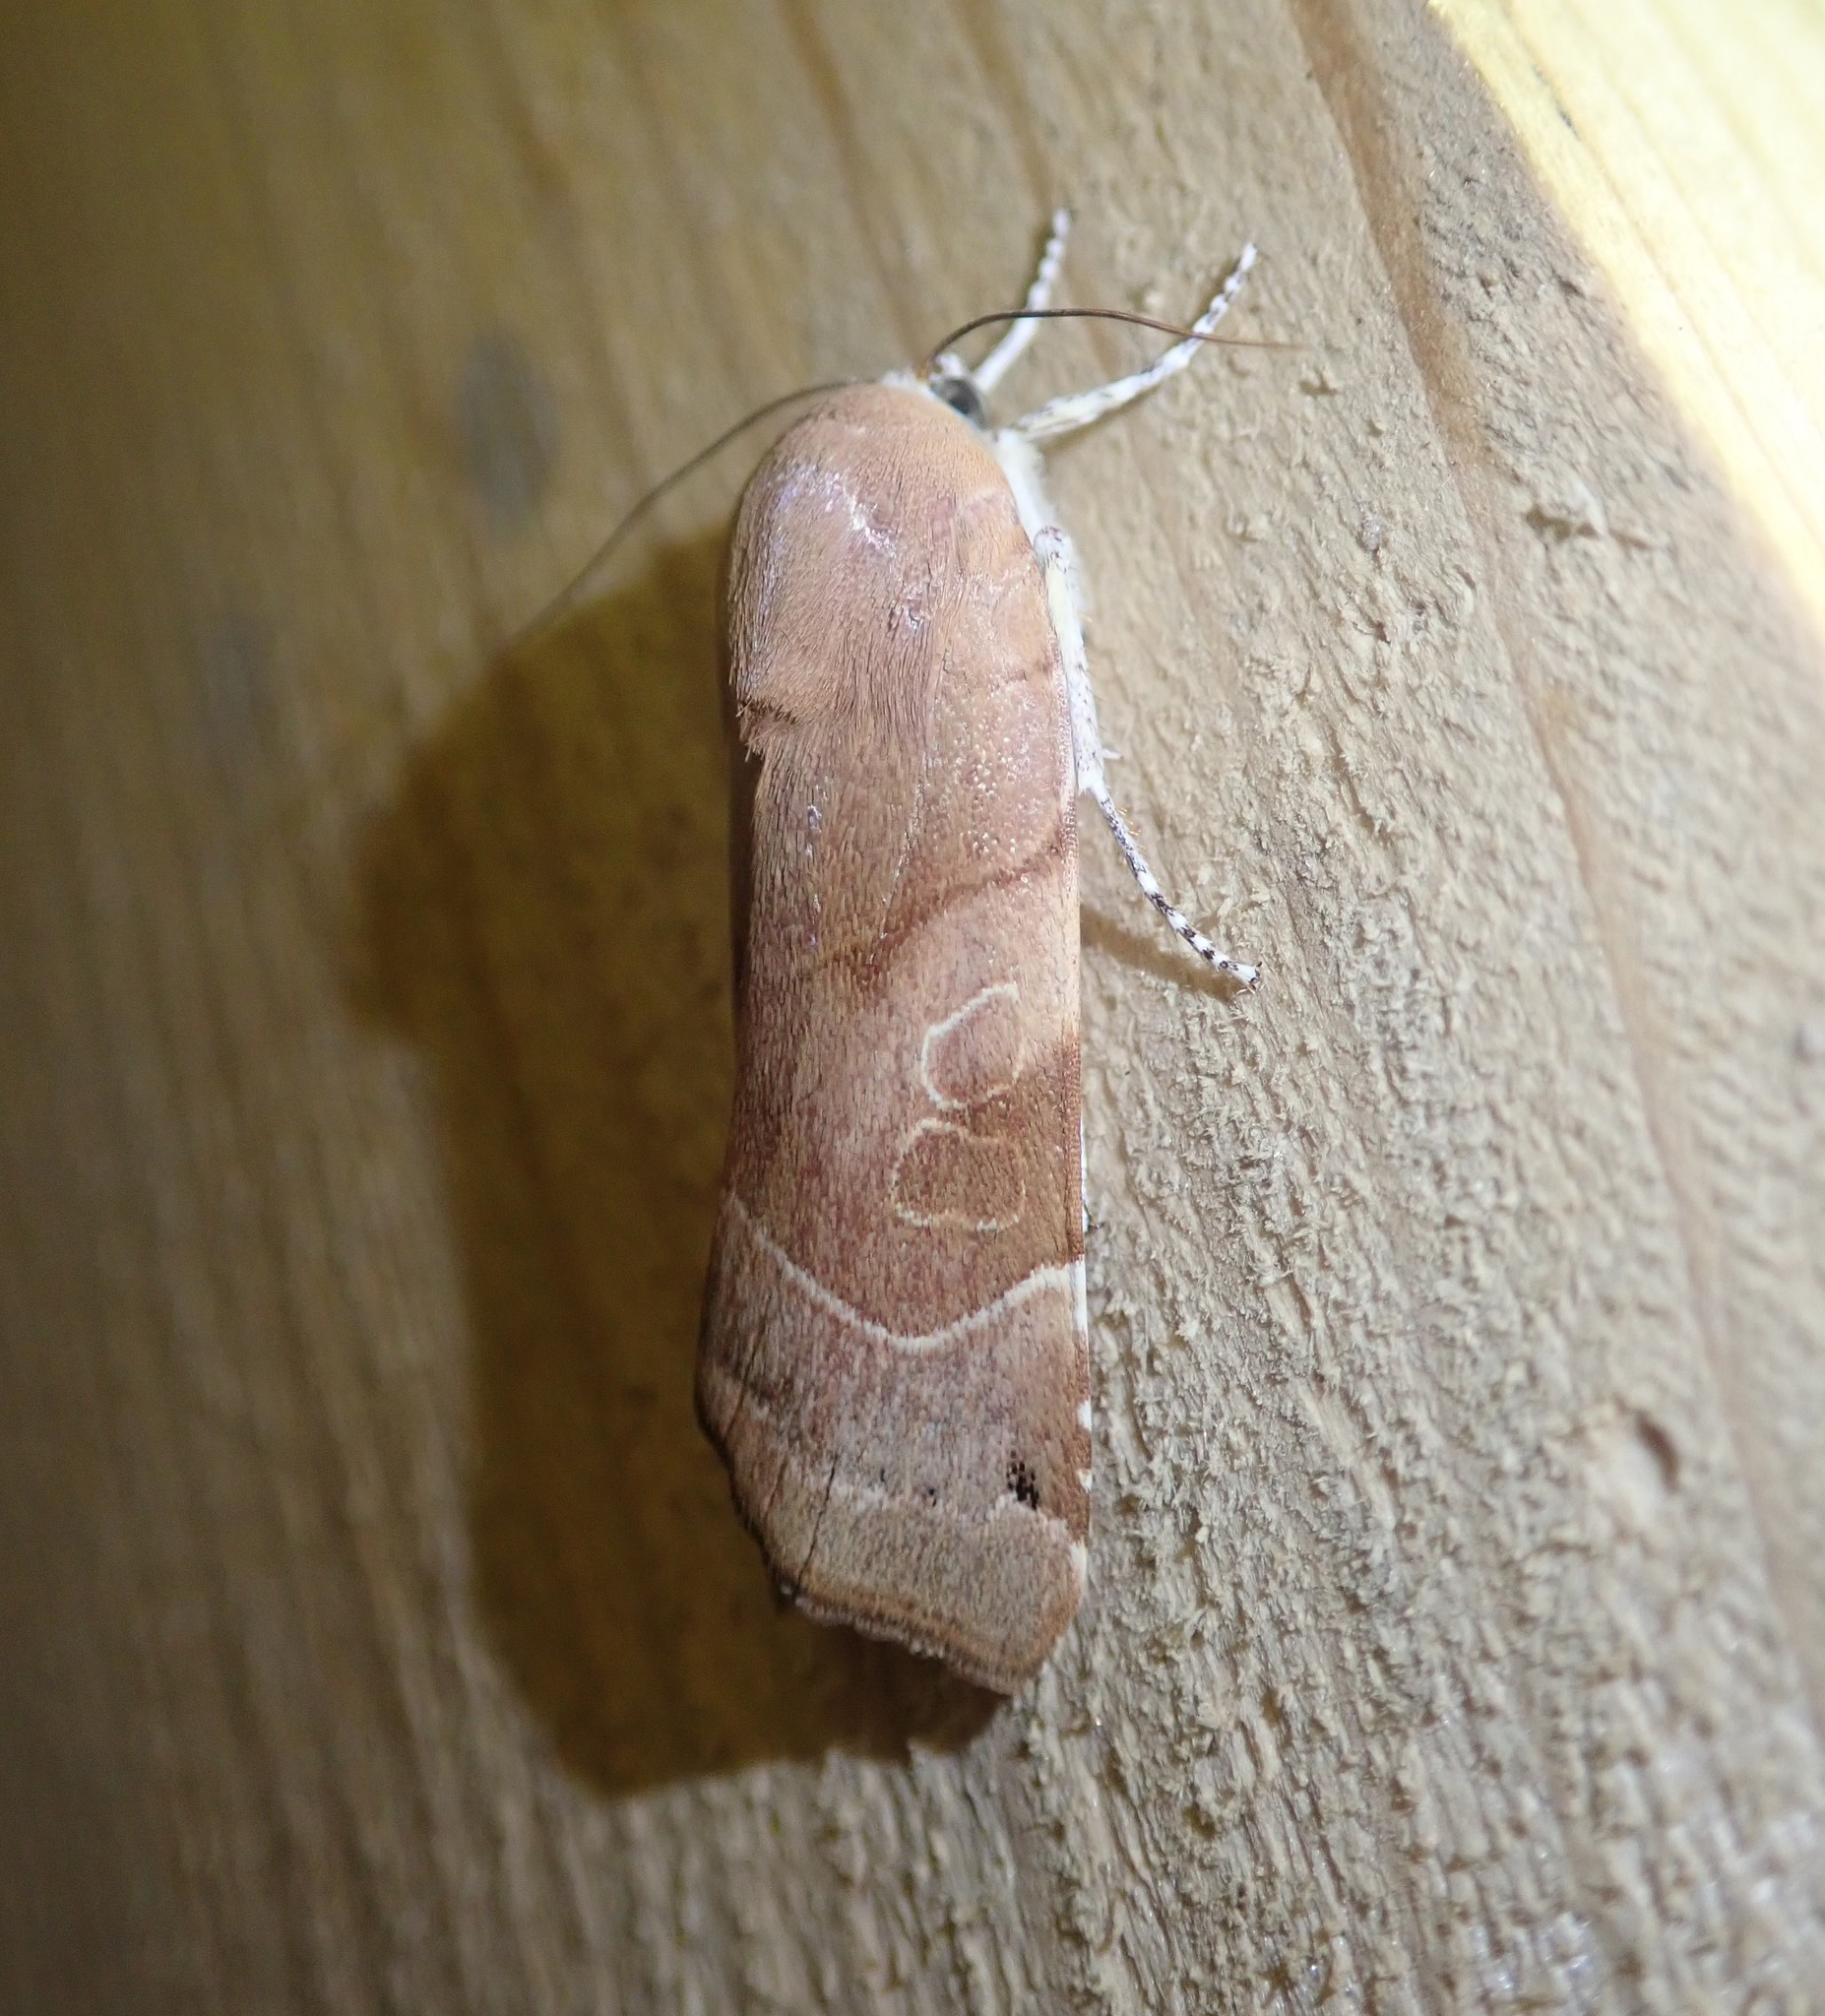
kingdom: Animalia
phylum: Arthropoda
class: Insecta
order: Lepidoptera
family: Noctuidae
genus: Noctua
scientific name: Noctua fimbriata
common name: Broad-bordered yellow underwing
